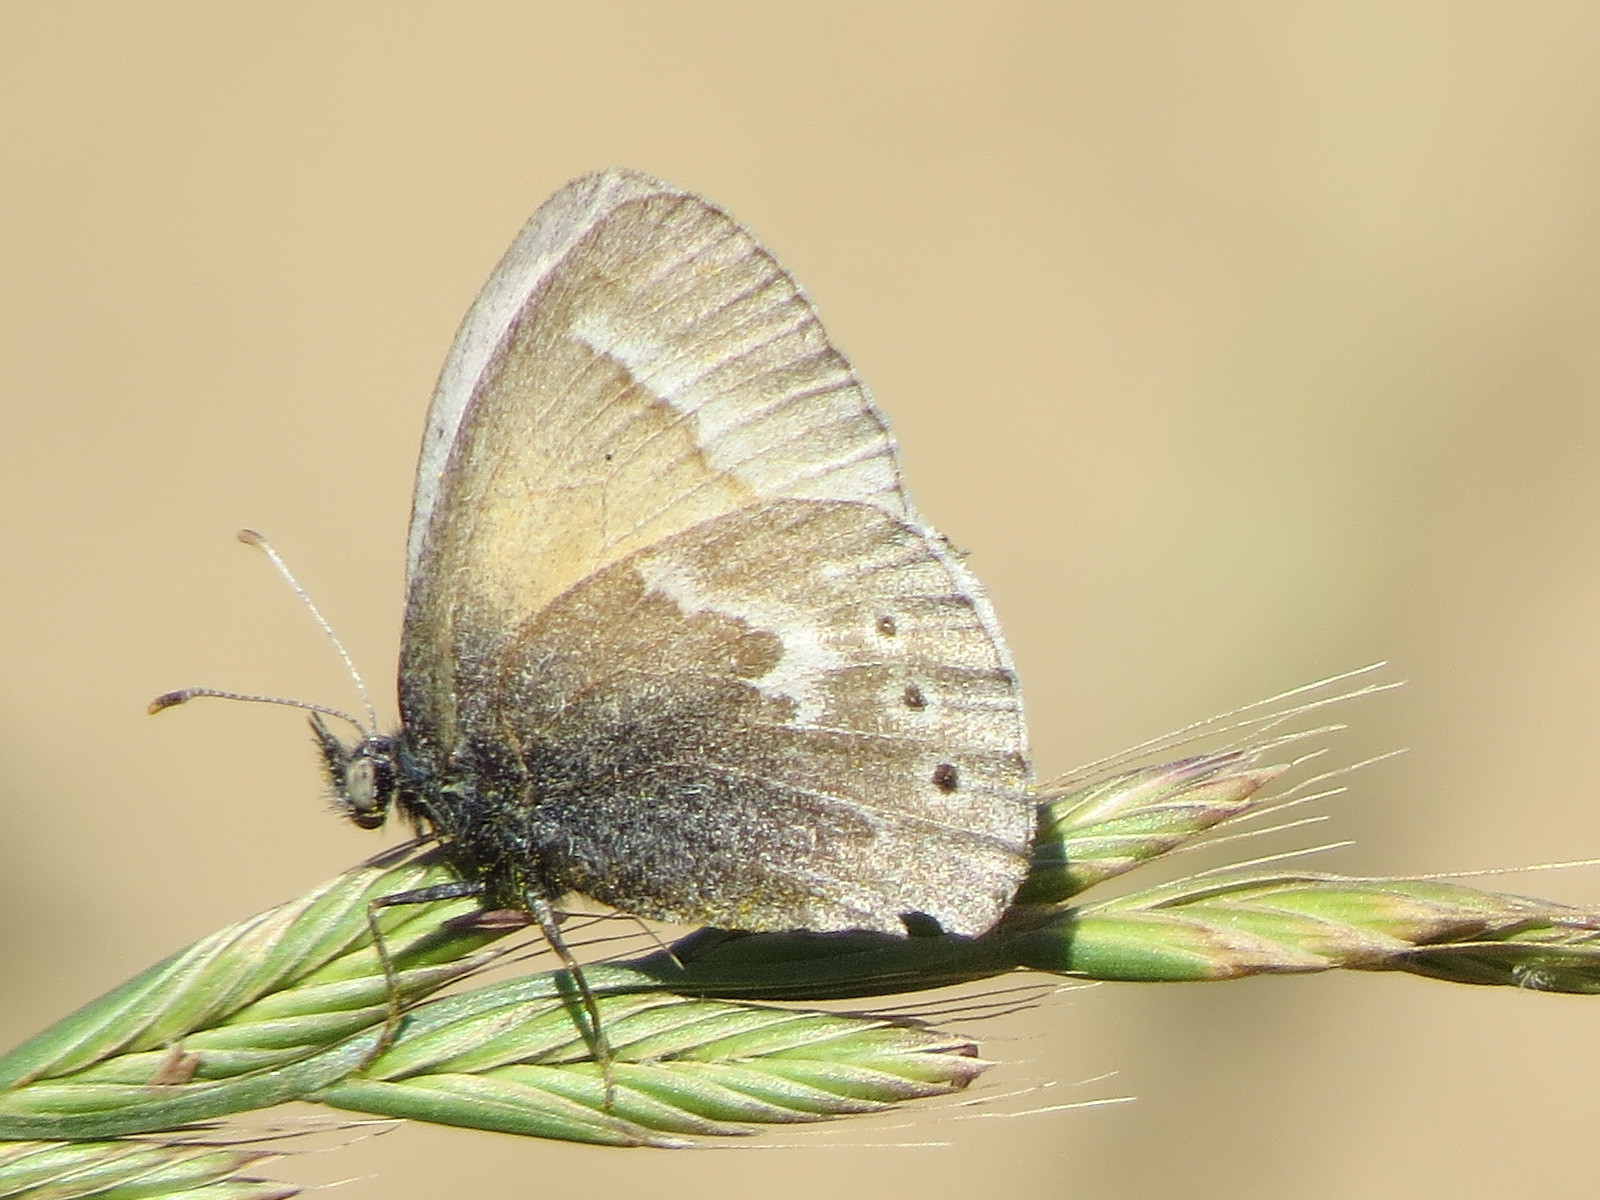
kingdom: Animalia
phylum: Arthropoda
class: Insecta
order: Lepidoptera
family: Nymphalidae
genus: Coenonympha
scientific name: Coenonympha california
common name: Common ringlet
